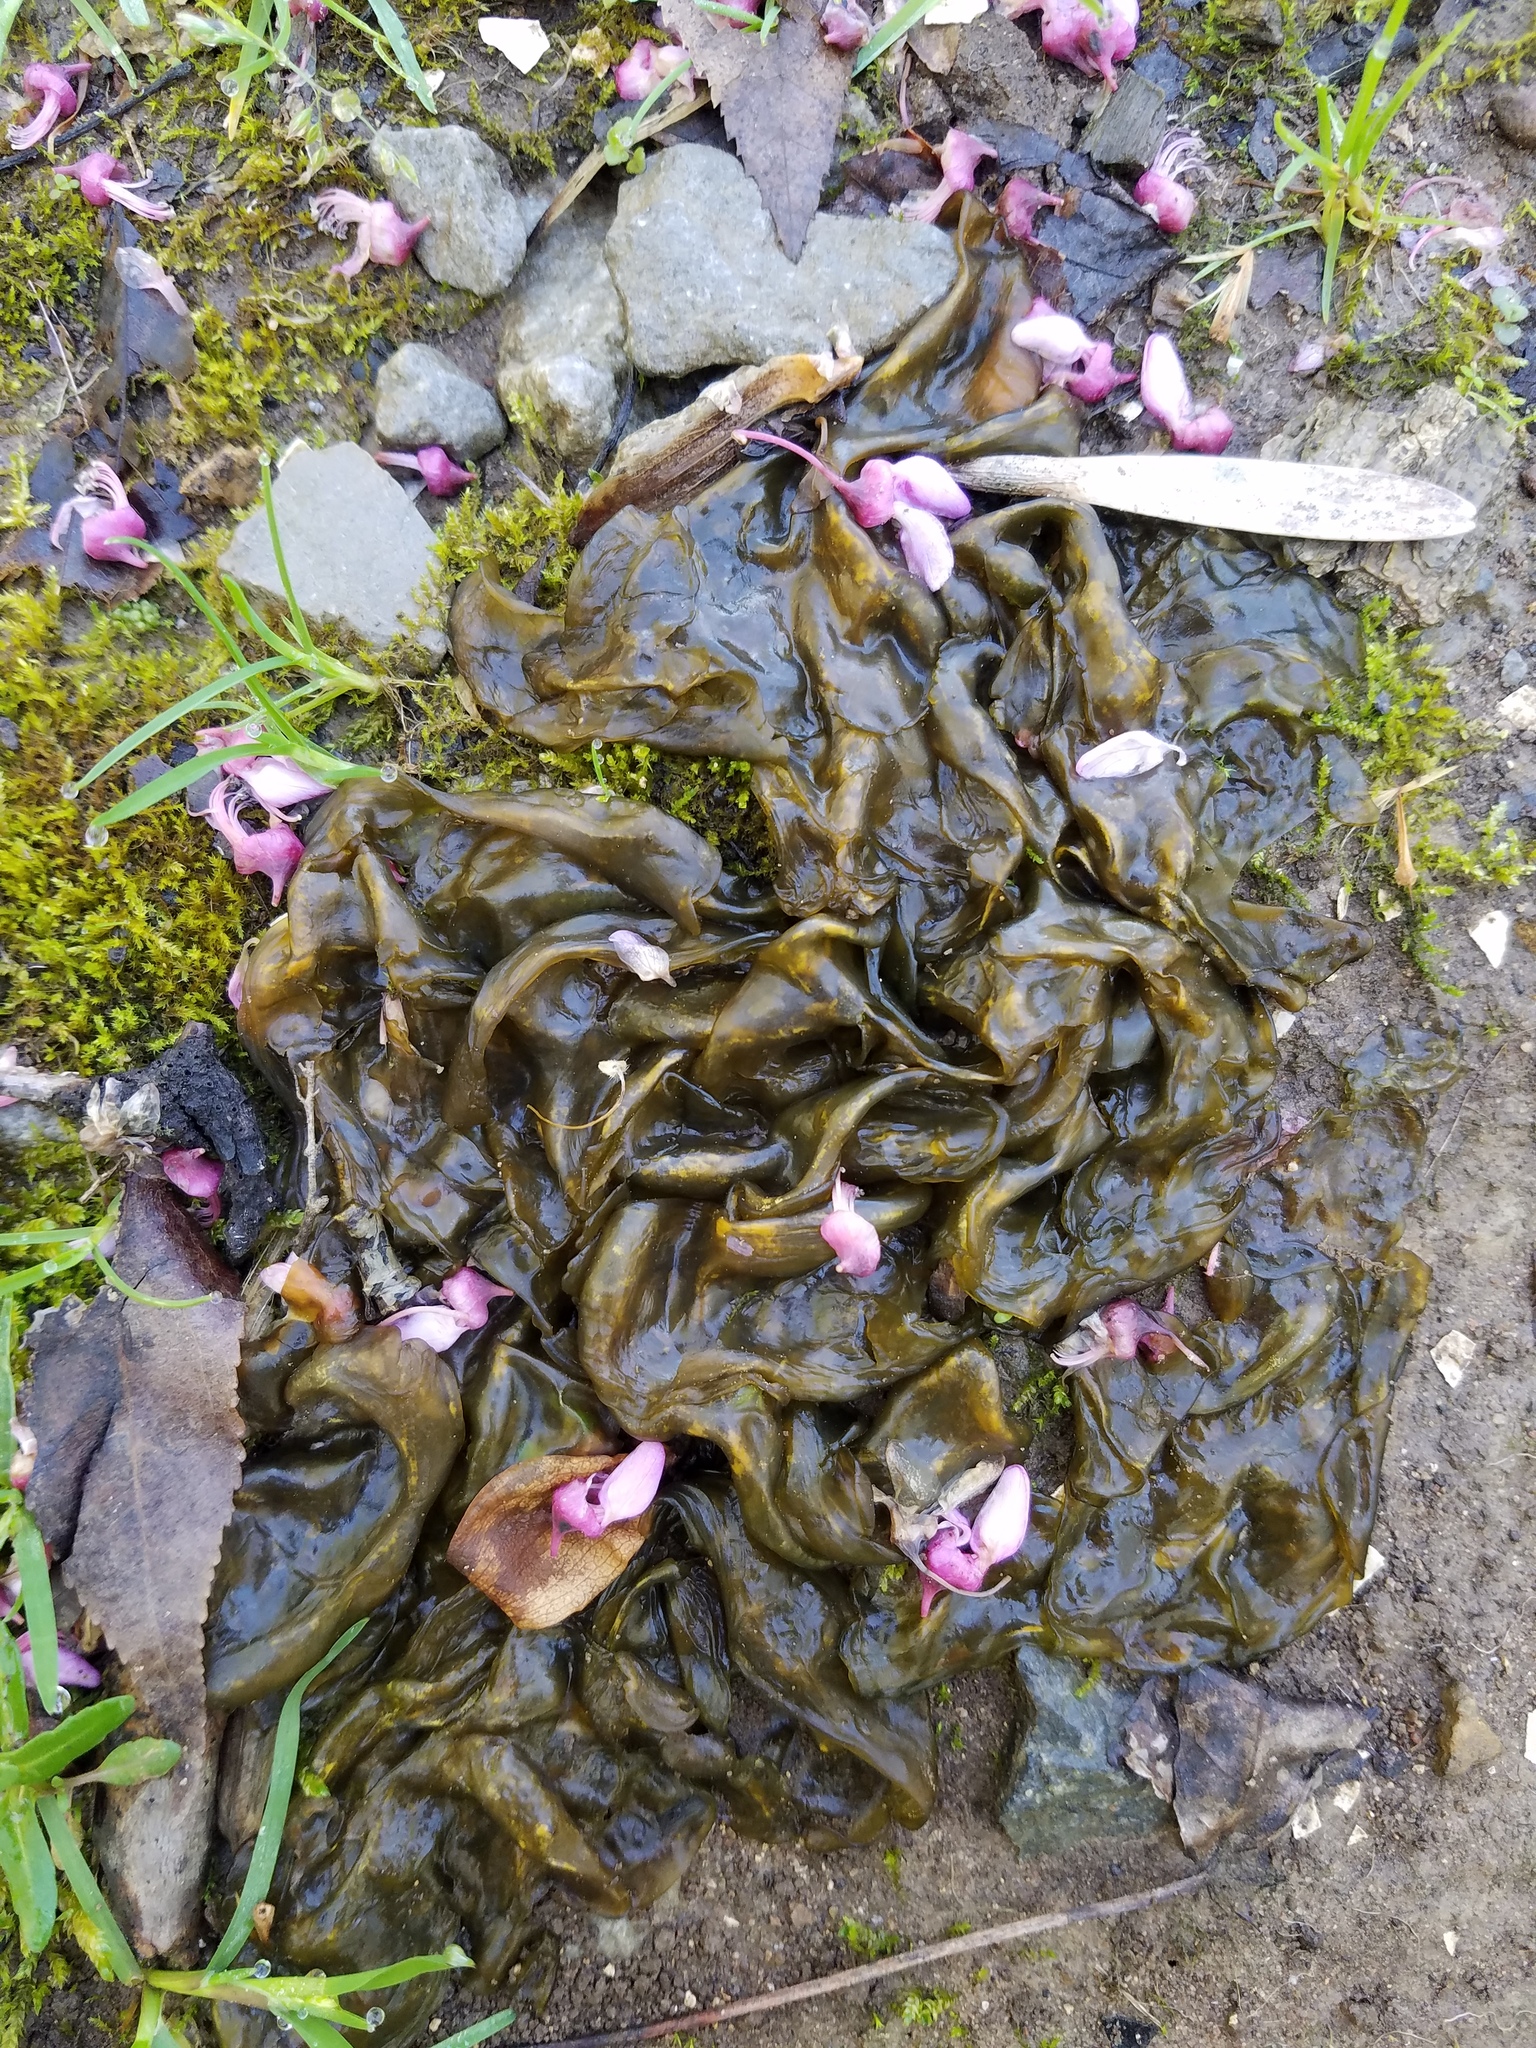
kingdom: Bacteria
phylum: Cyanobacteria
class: Cyanobacteriia
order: Cyanobacteriales
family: Nostocaceae
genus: Nostoc
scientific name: Nostoc commune
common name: Star jelly
